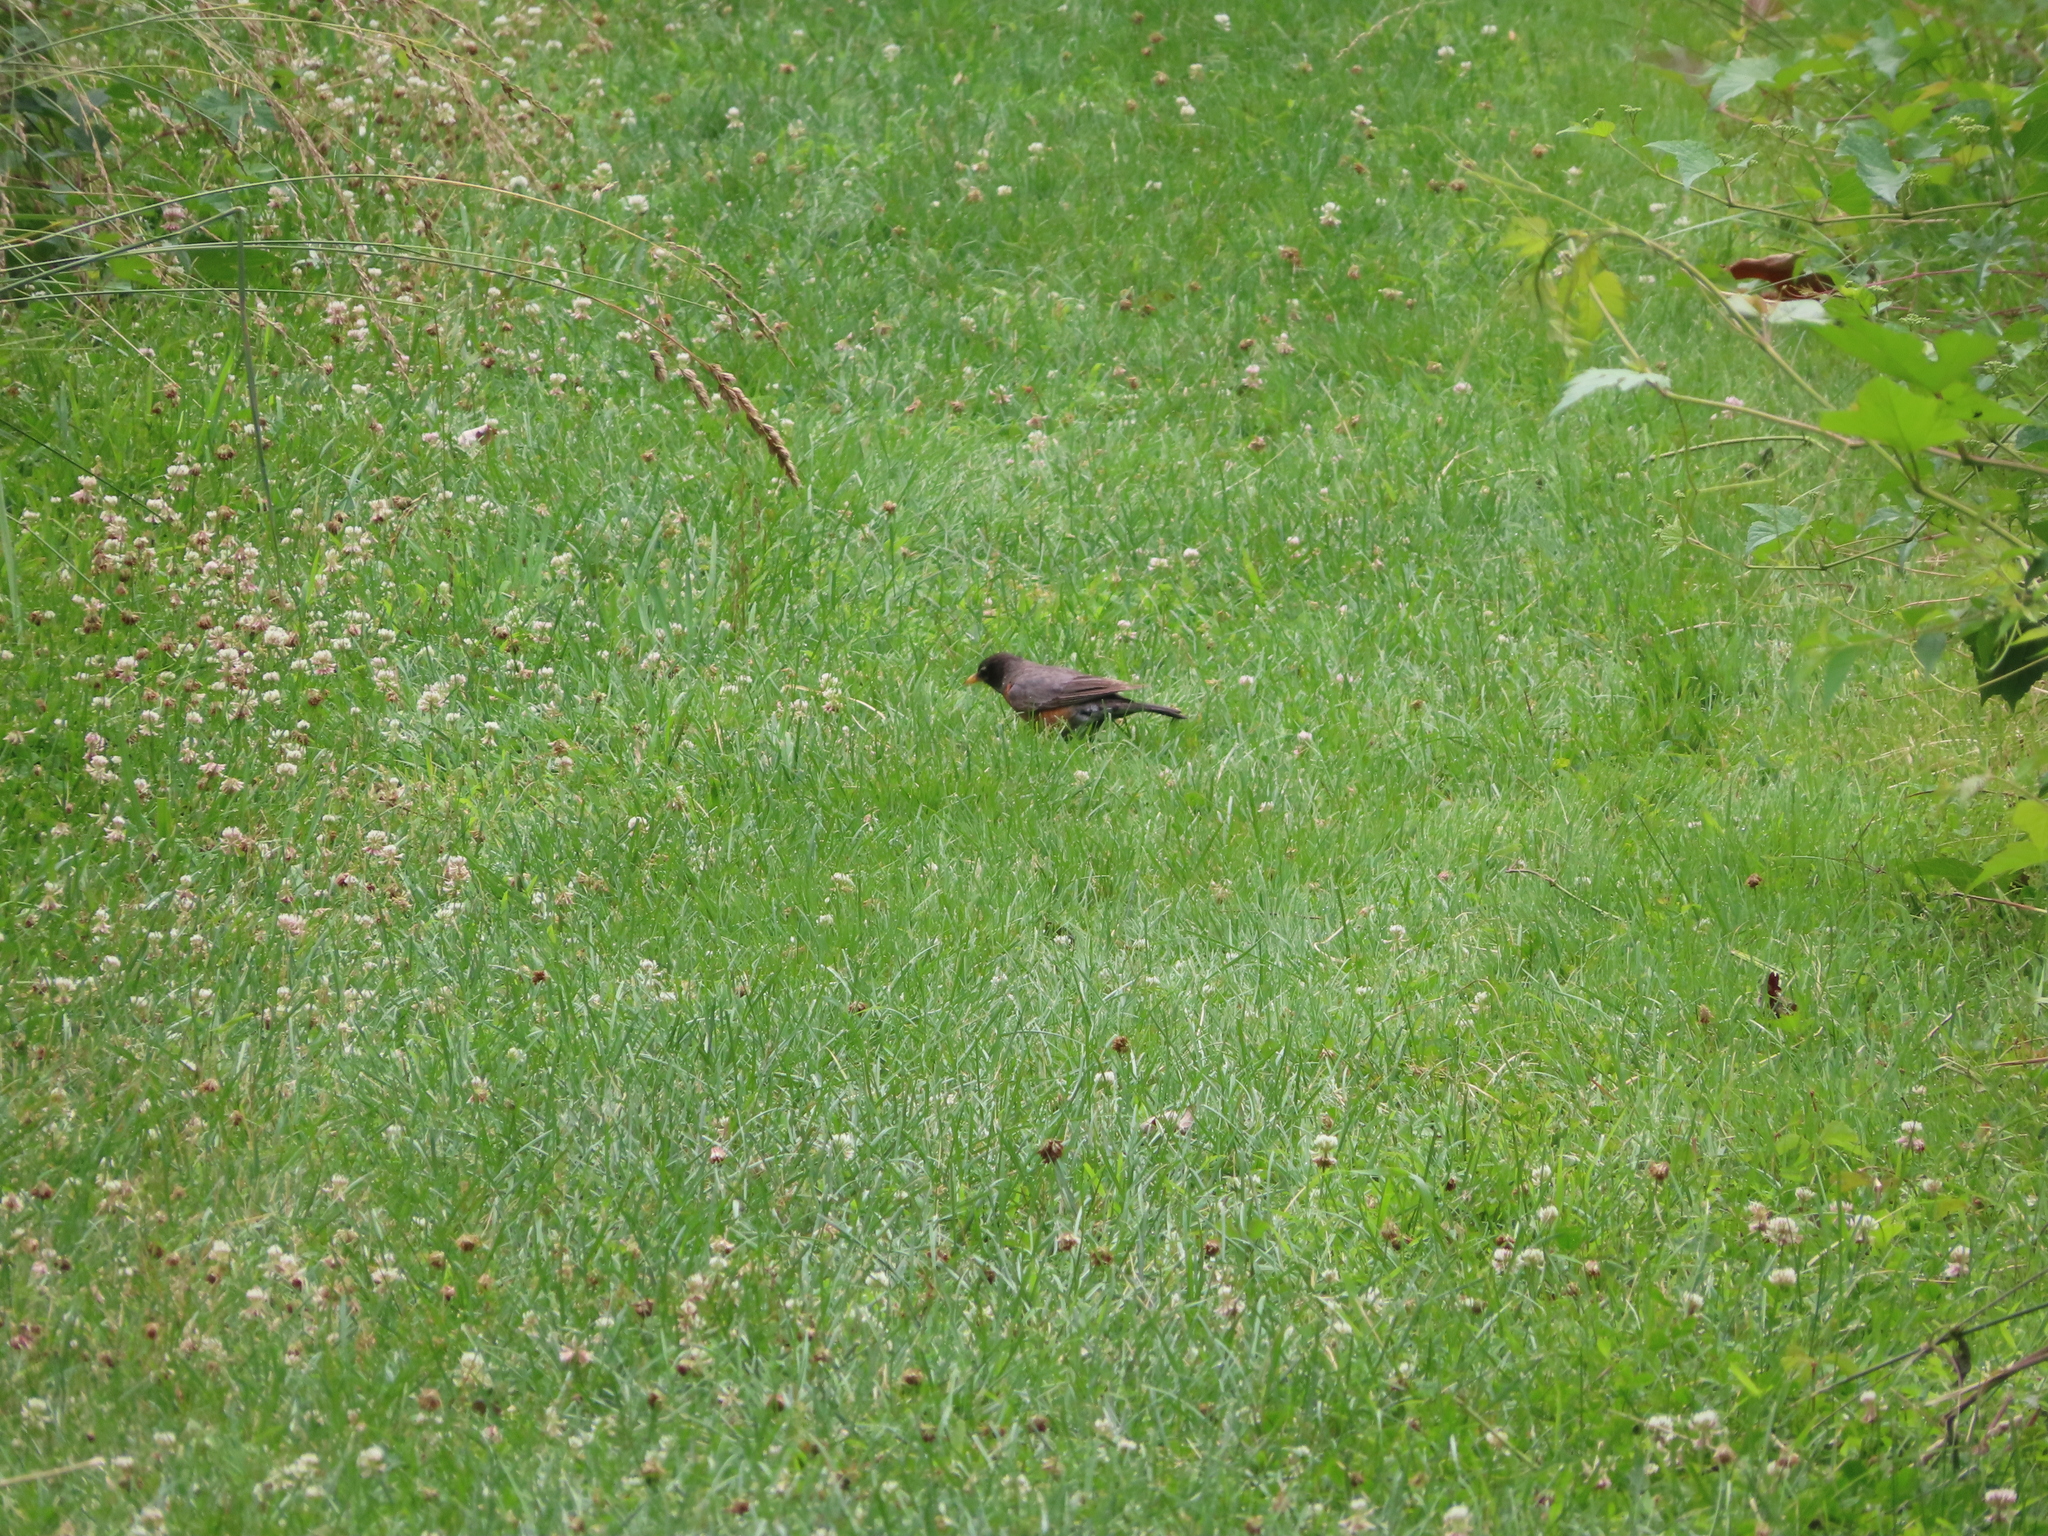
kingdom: Animalia
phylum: Chordata
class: Aves
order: Passeriformes
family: Turdidae
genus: Turdus
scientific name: Turdus migratorius
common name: American robin
